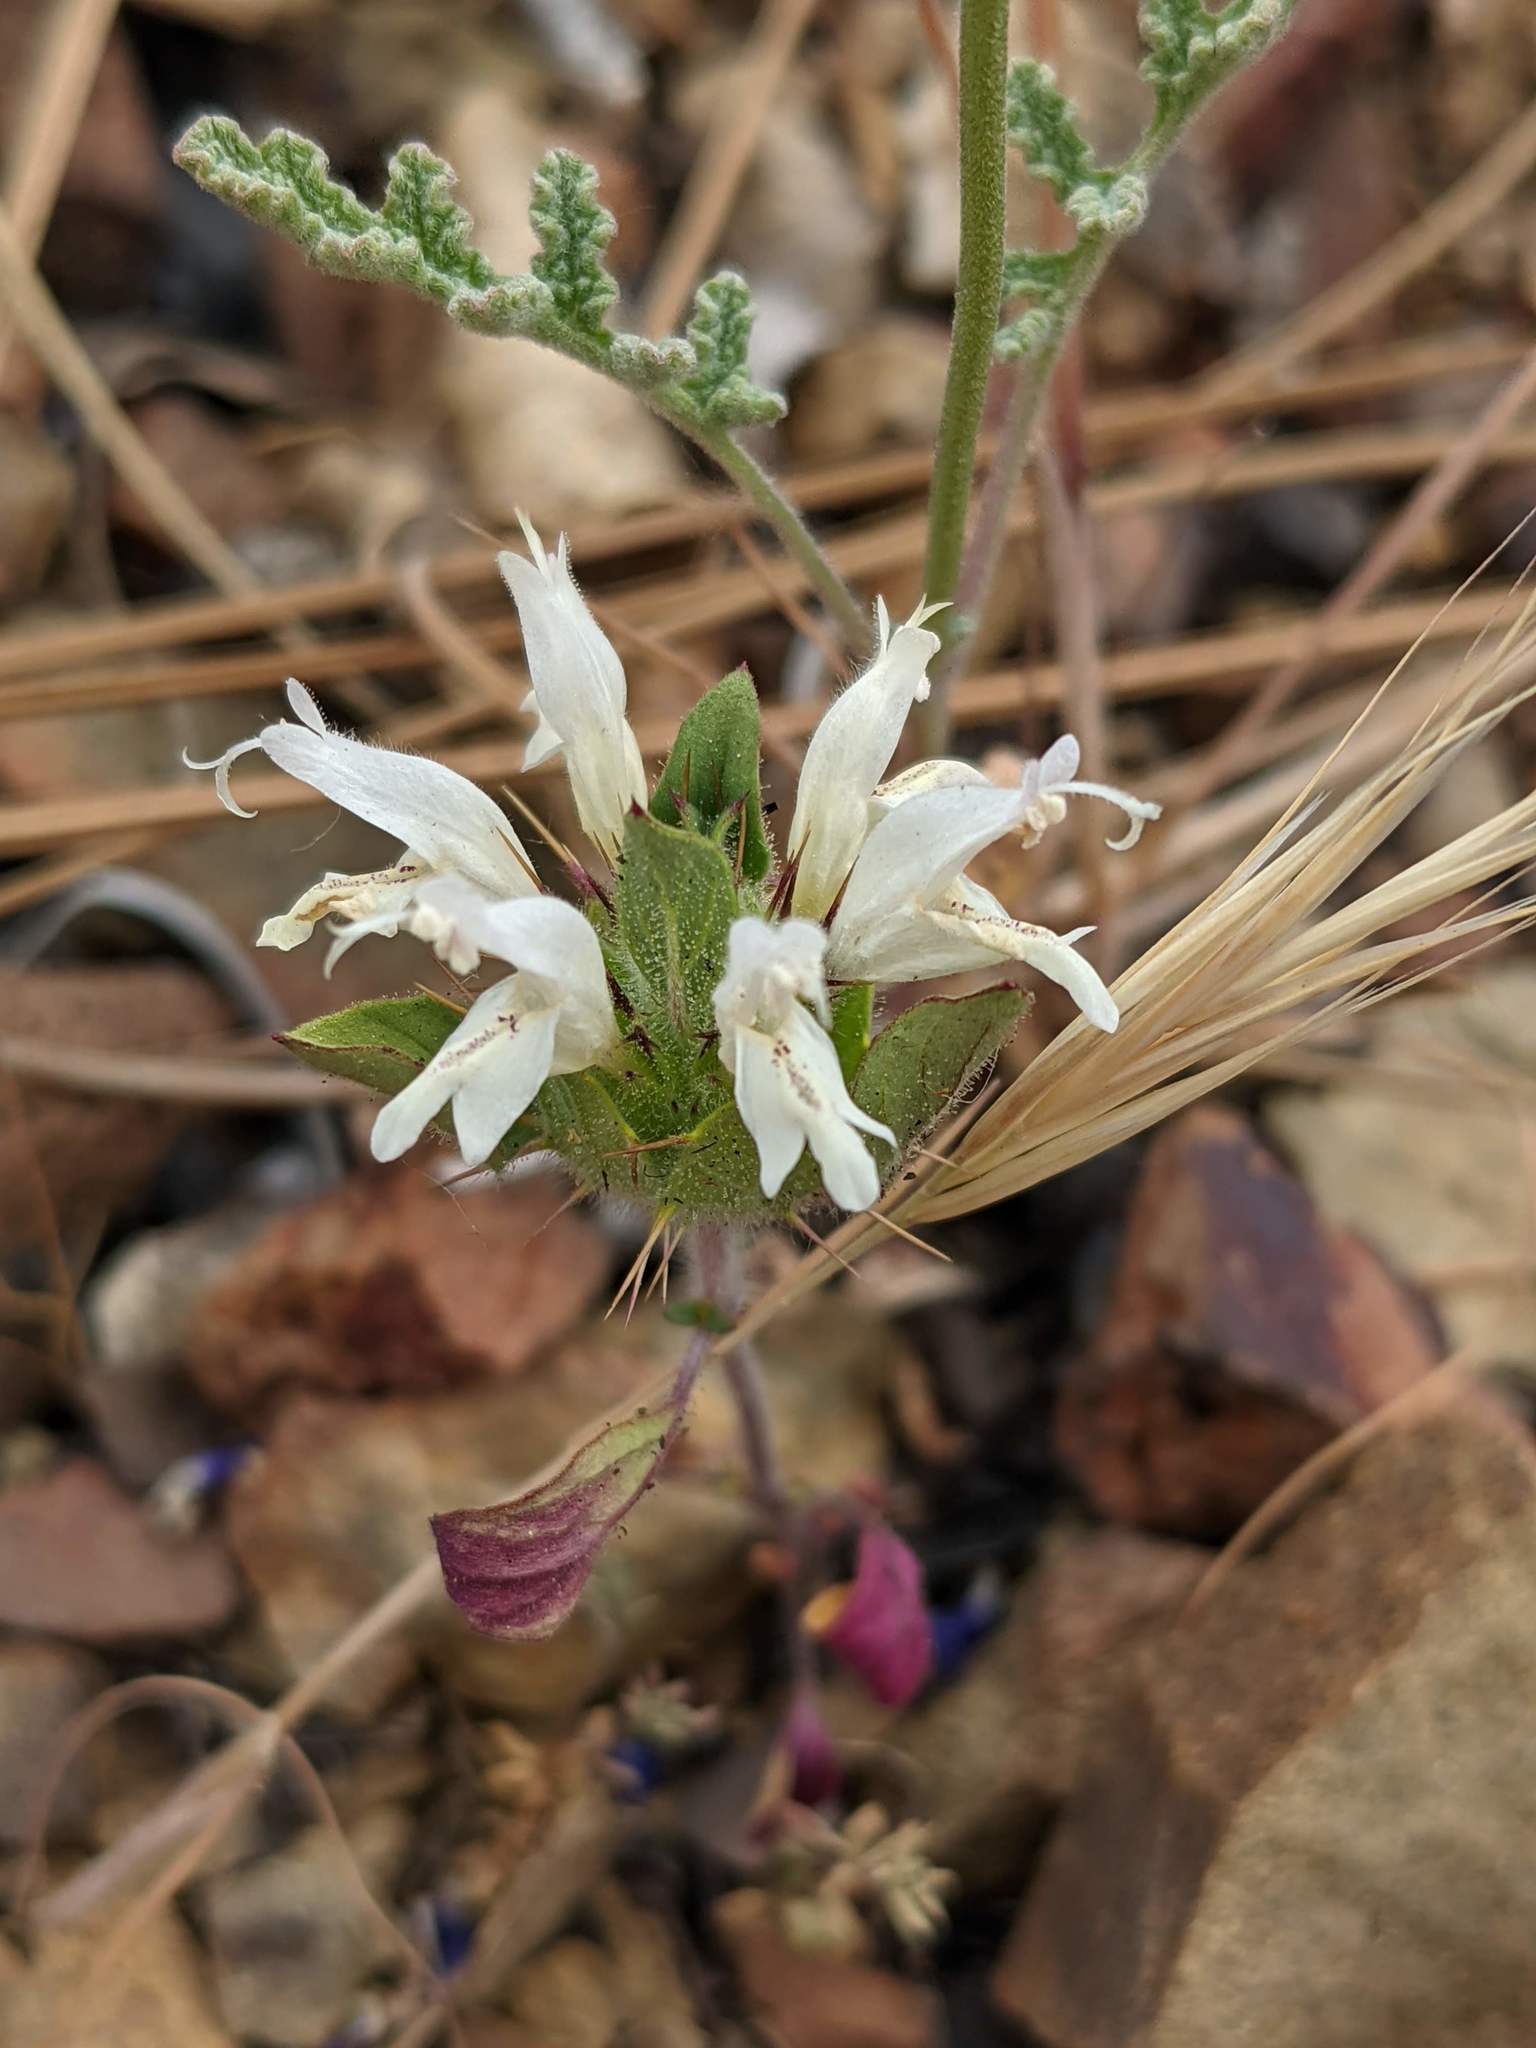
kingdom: Plantae
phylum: Tracheophyta
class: Magnoliopsida
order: Lamiales
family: Lamiaceae
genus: Acanthomintha
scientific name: Acanthomintha lanceolata
